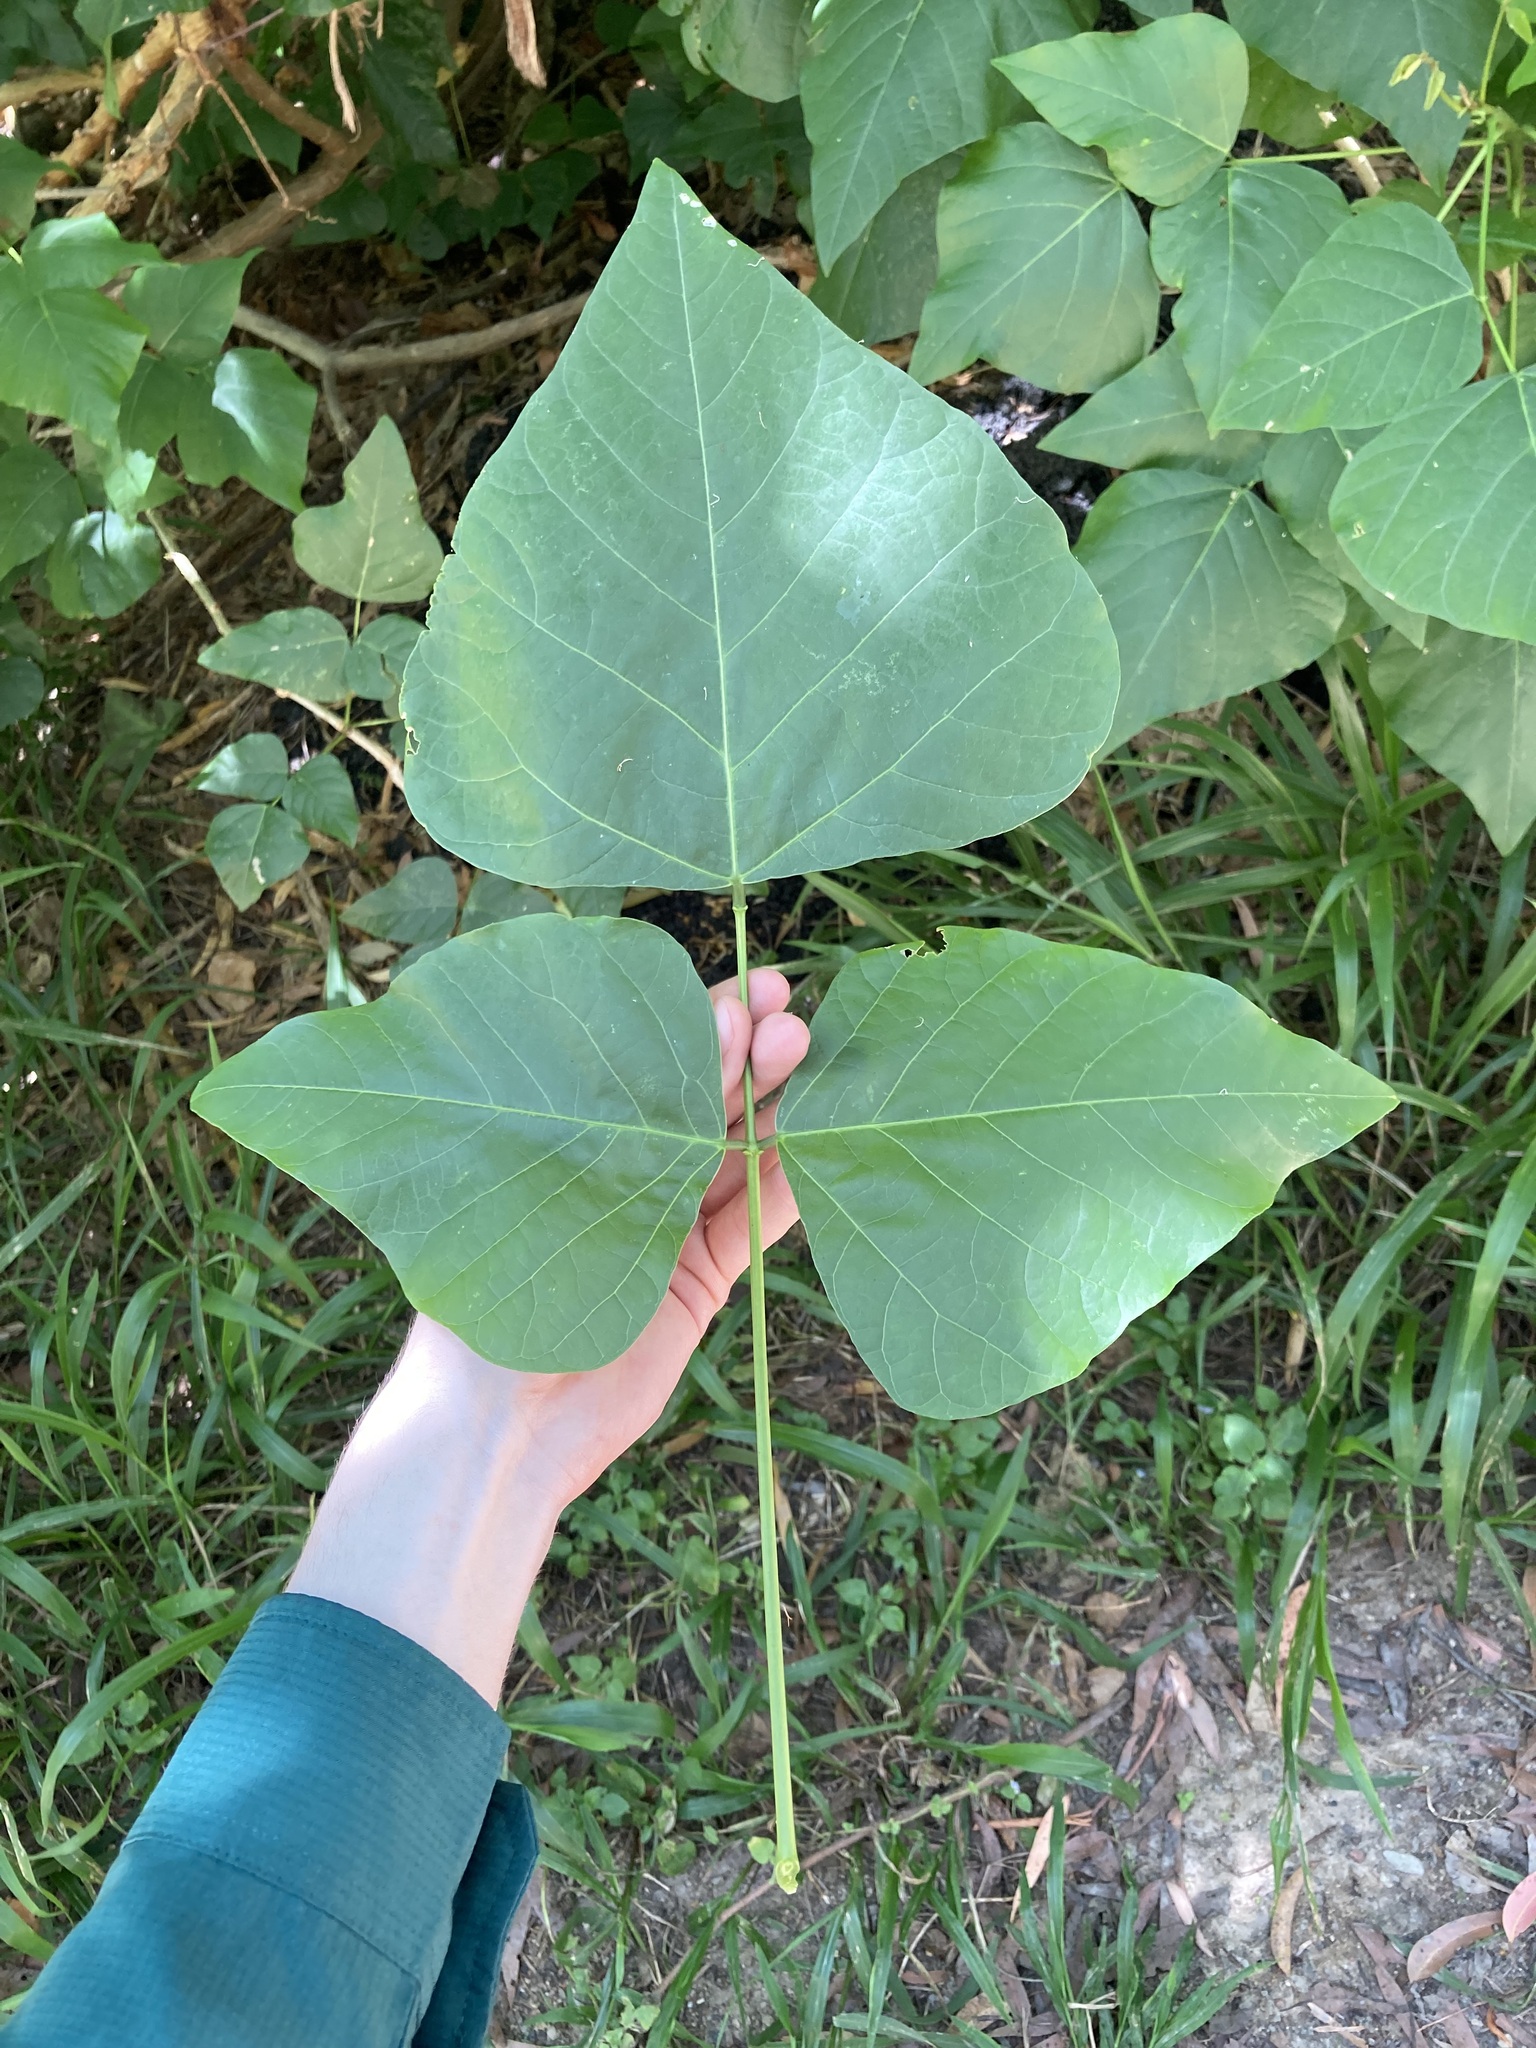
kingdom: Plantae
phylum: Tracheophyta
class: Magnoliopsida
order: Fabales
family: Fabaceae
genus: Erythrina
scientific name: Erythrina sykesii
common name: Coraltree
